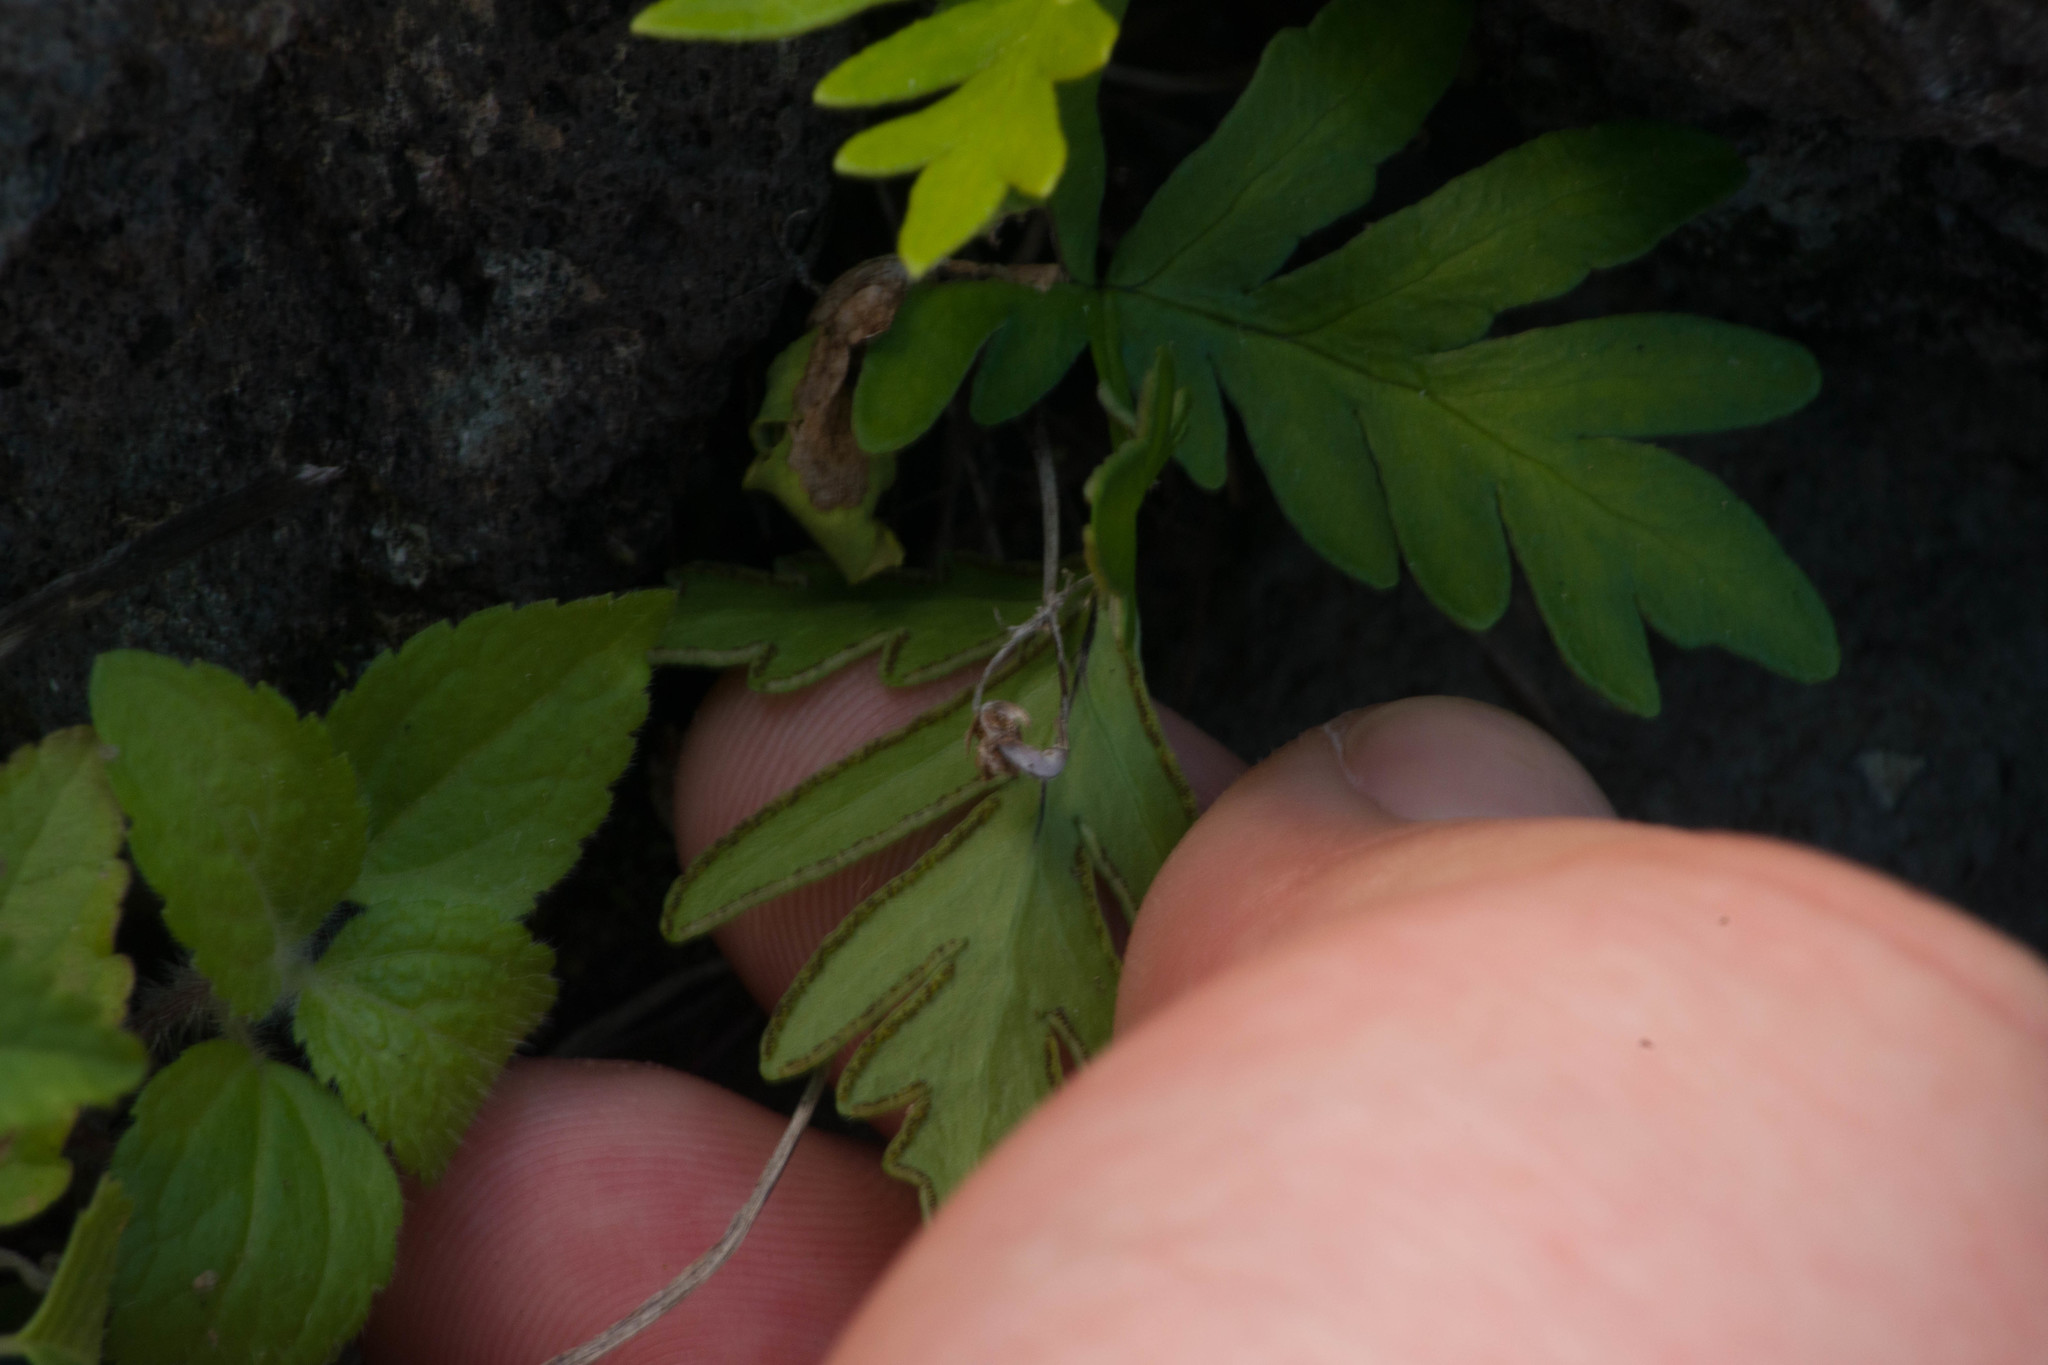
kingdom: Plantae
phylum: Tracheophyta
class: Polypodiopsida
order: Polypodiales
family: Pteridaceae
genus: Doryopteris
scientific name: Doryopteris decipiens
